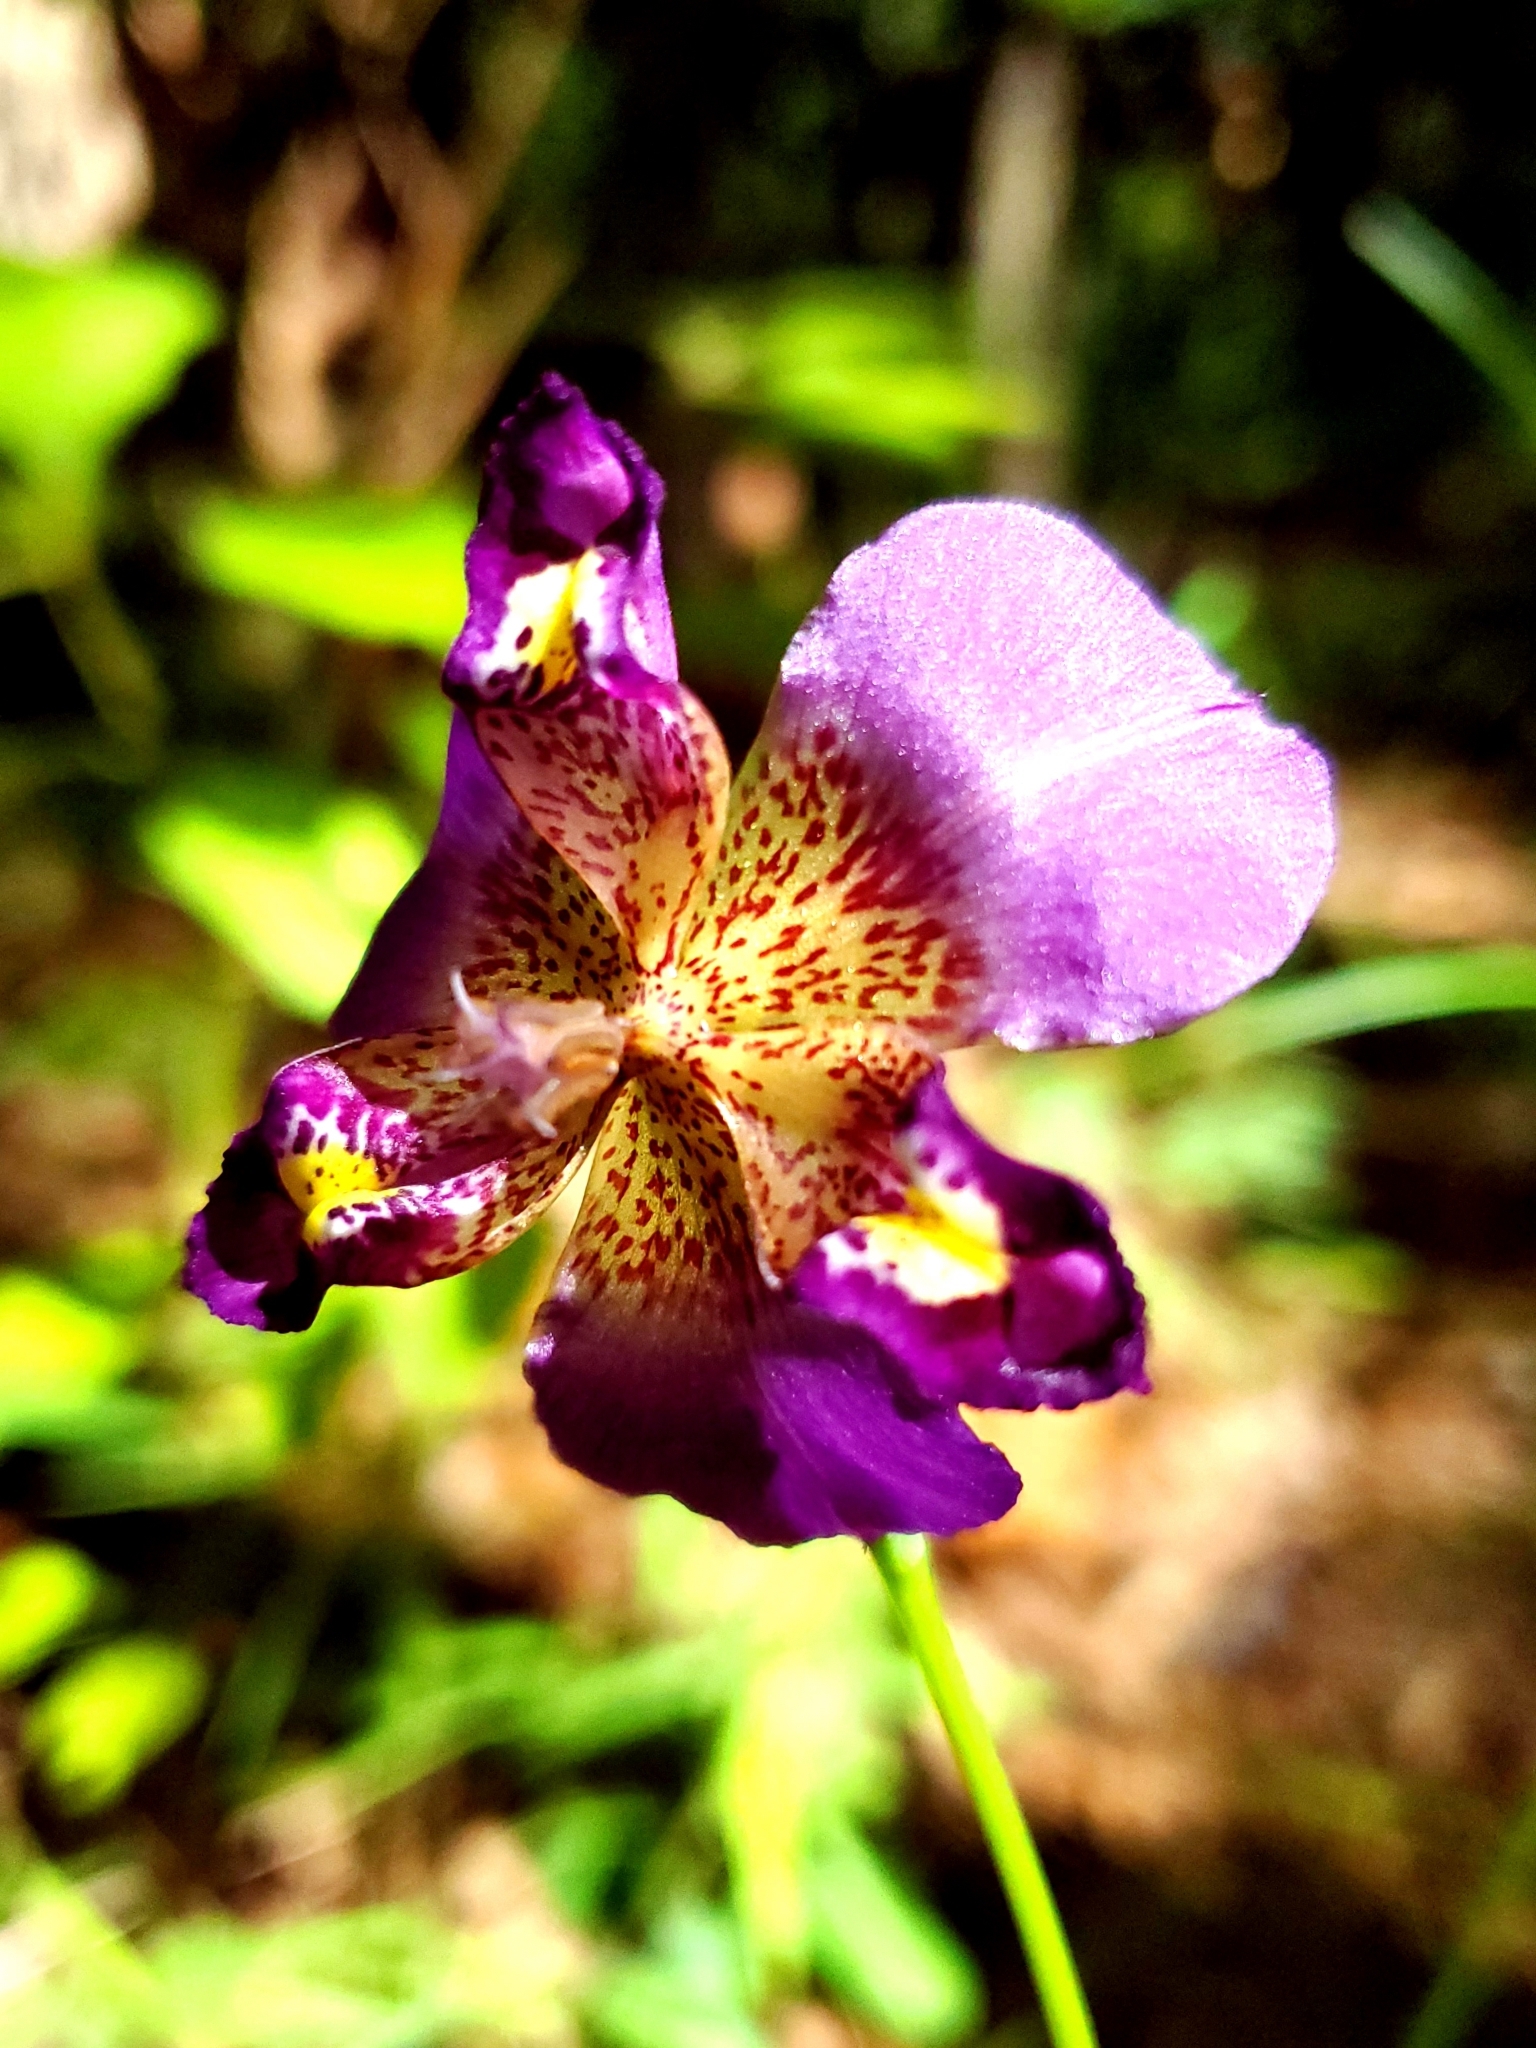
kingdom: Plantae
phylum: Tracheophyta
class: Liliopsida
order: Asparagales
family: Iridaceae
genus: Alophia
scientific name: Alophia drummondii
